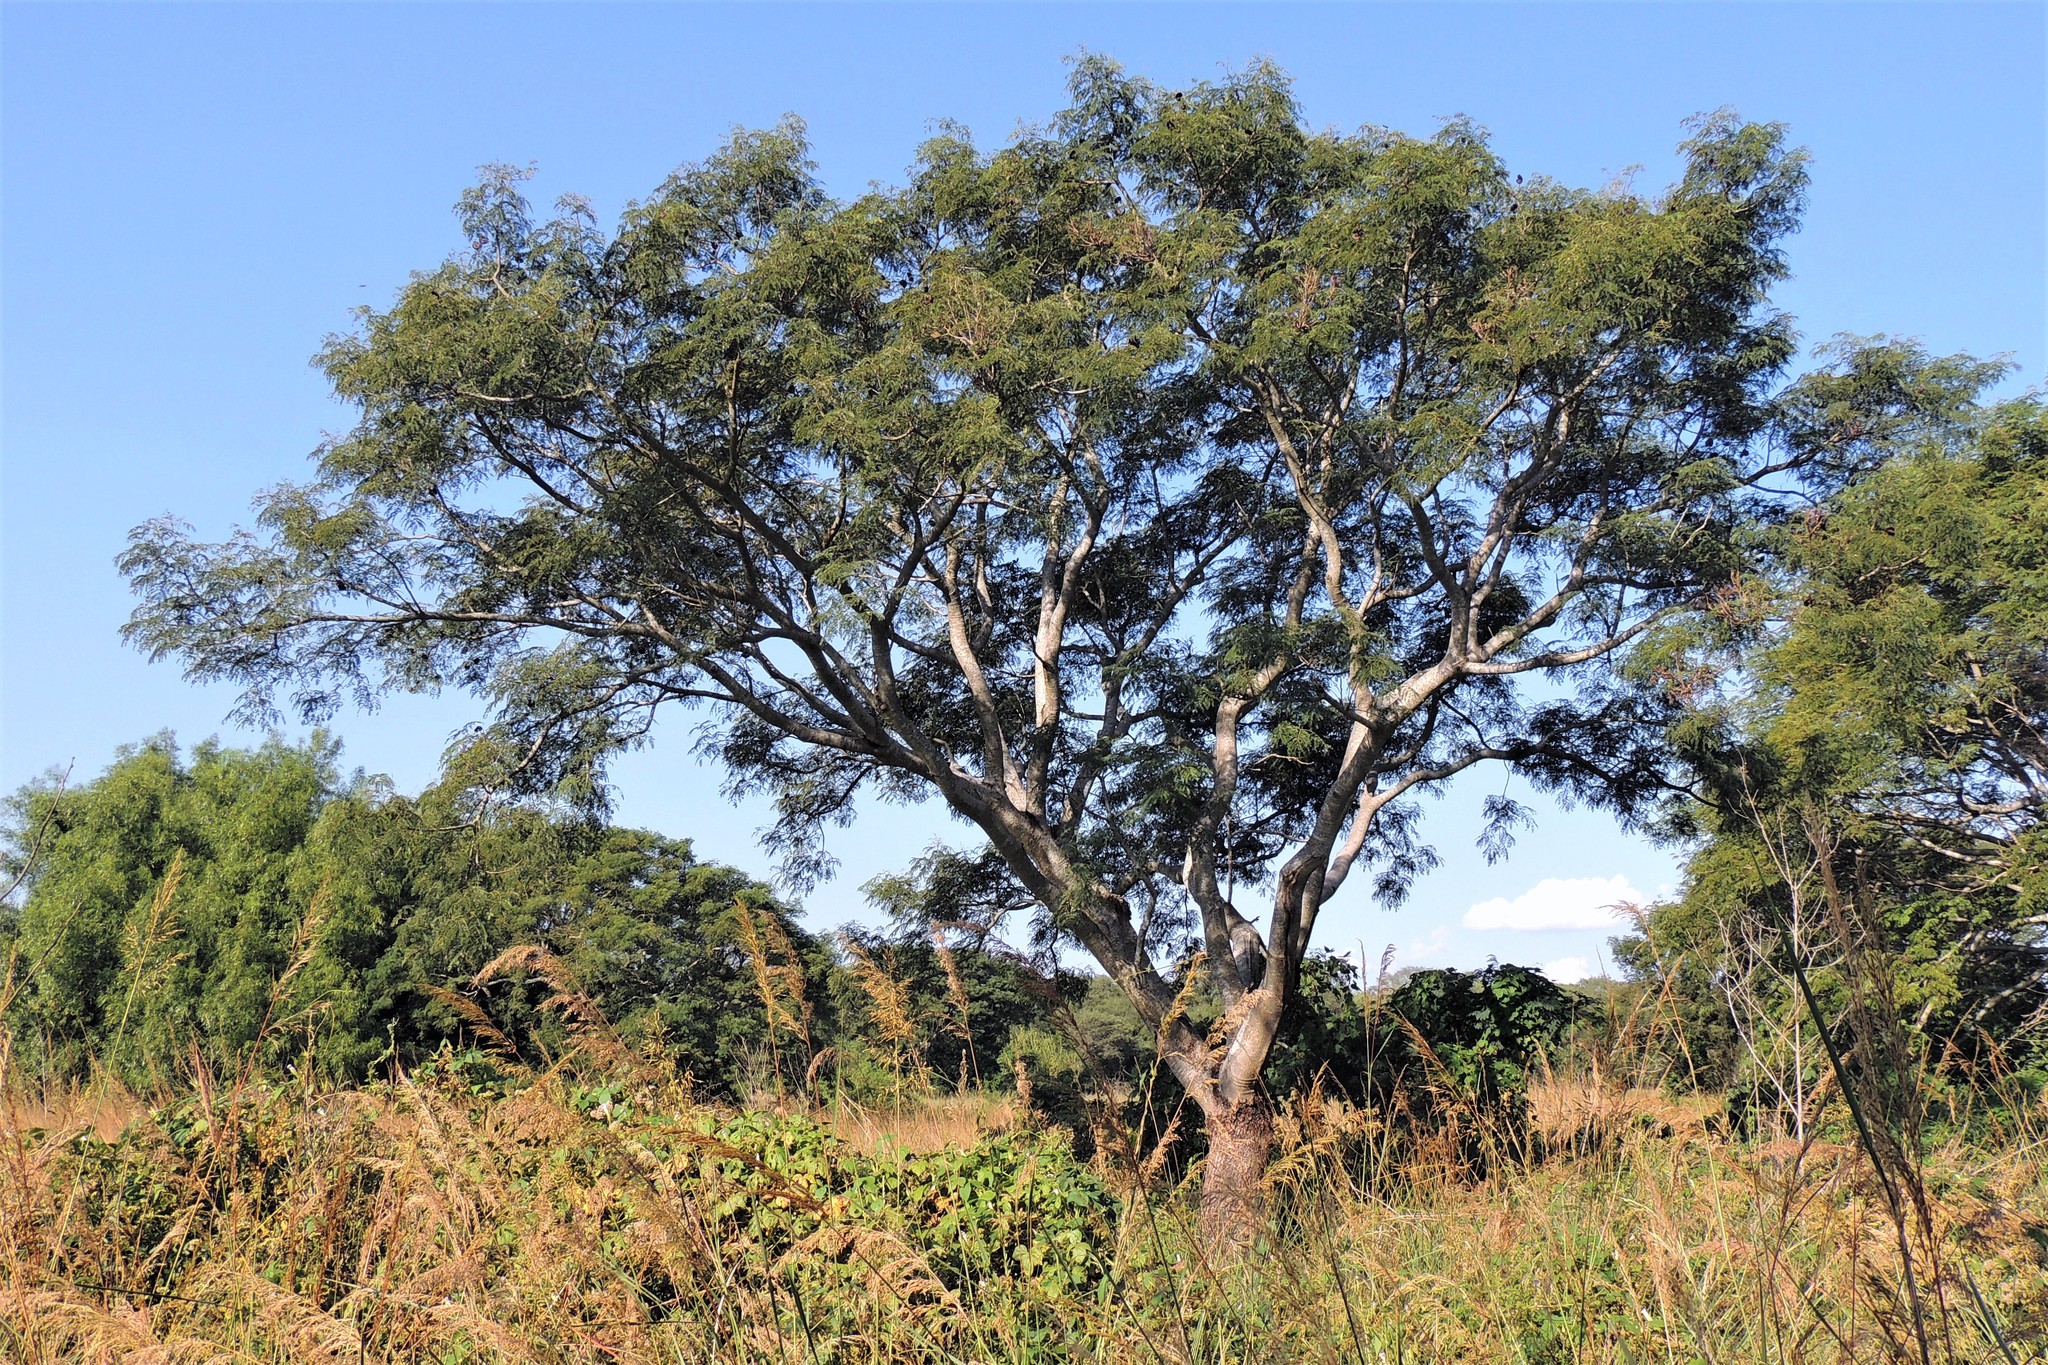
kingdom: Plantae
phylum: Tracheophyta
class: Magnoliopsida
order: Fabales
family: Fabaceae
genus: Enterolobium
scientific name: Enterolobium contortisiliquum
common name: Pacara earpod tree
